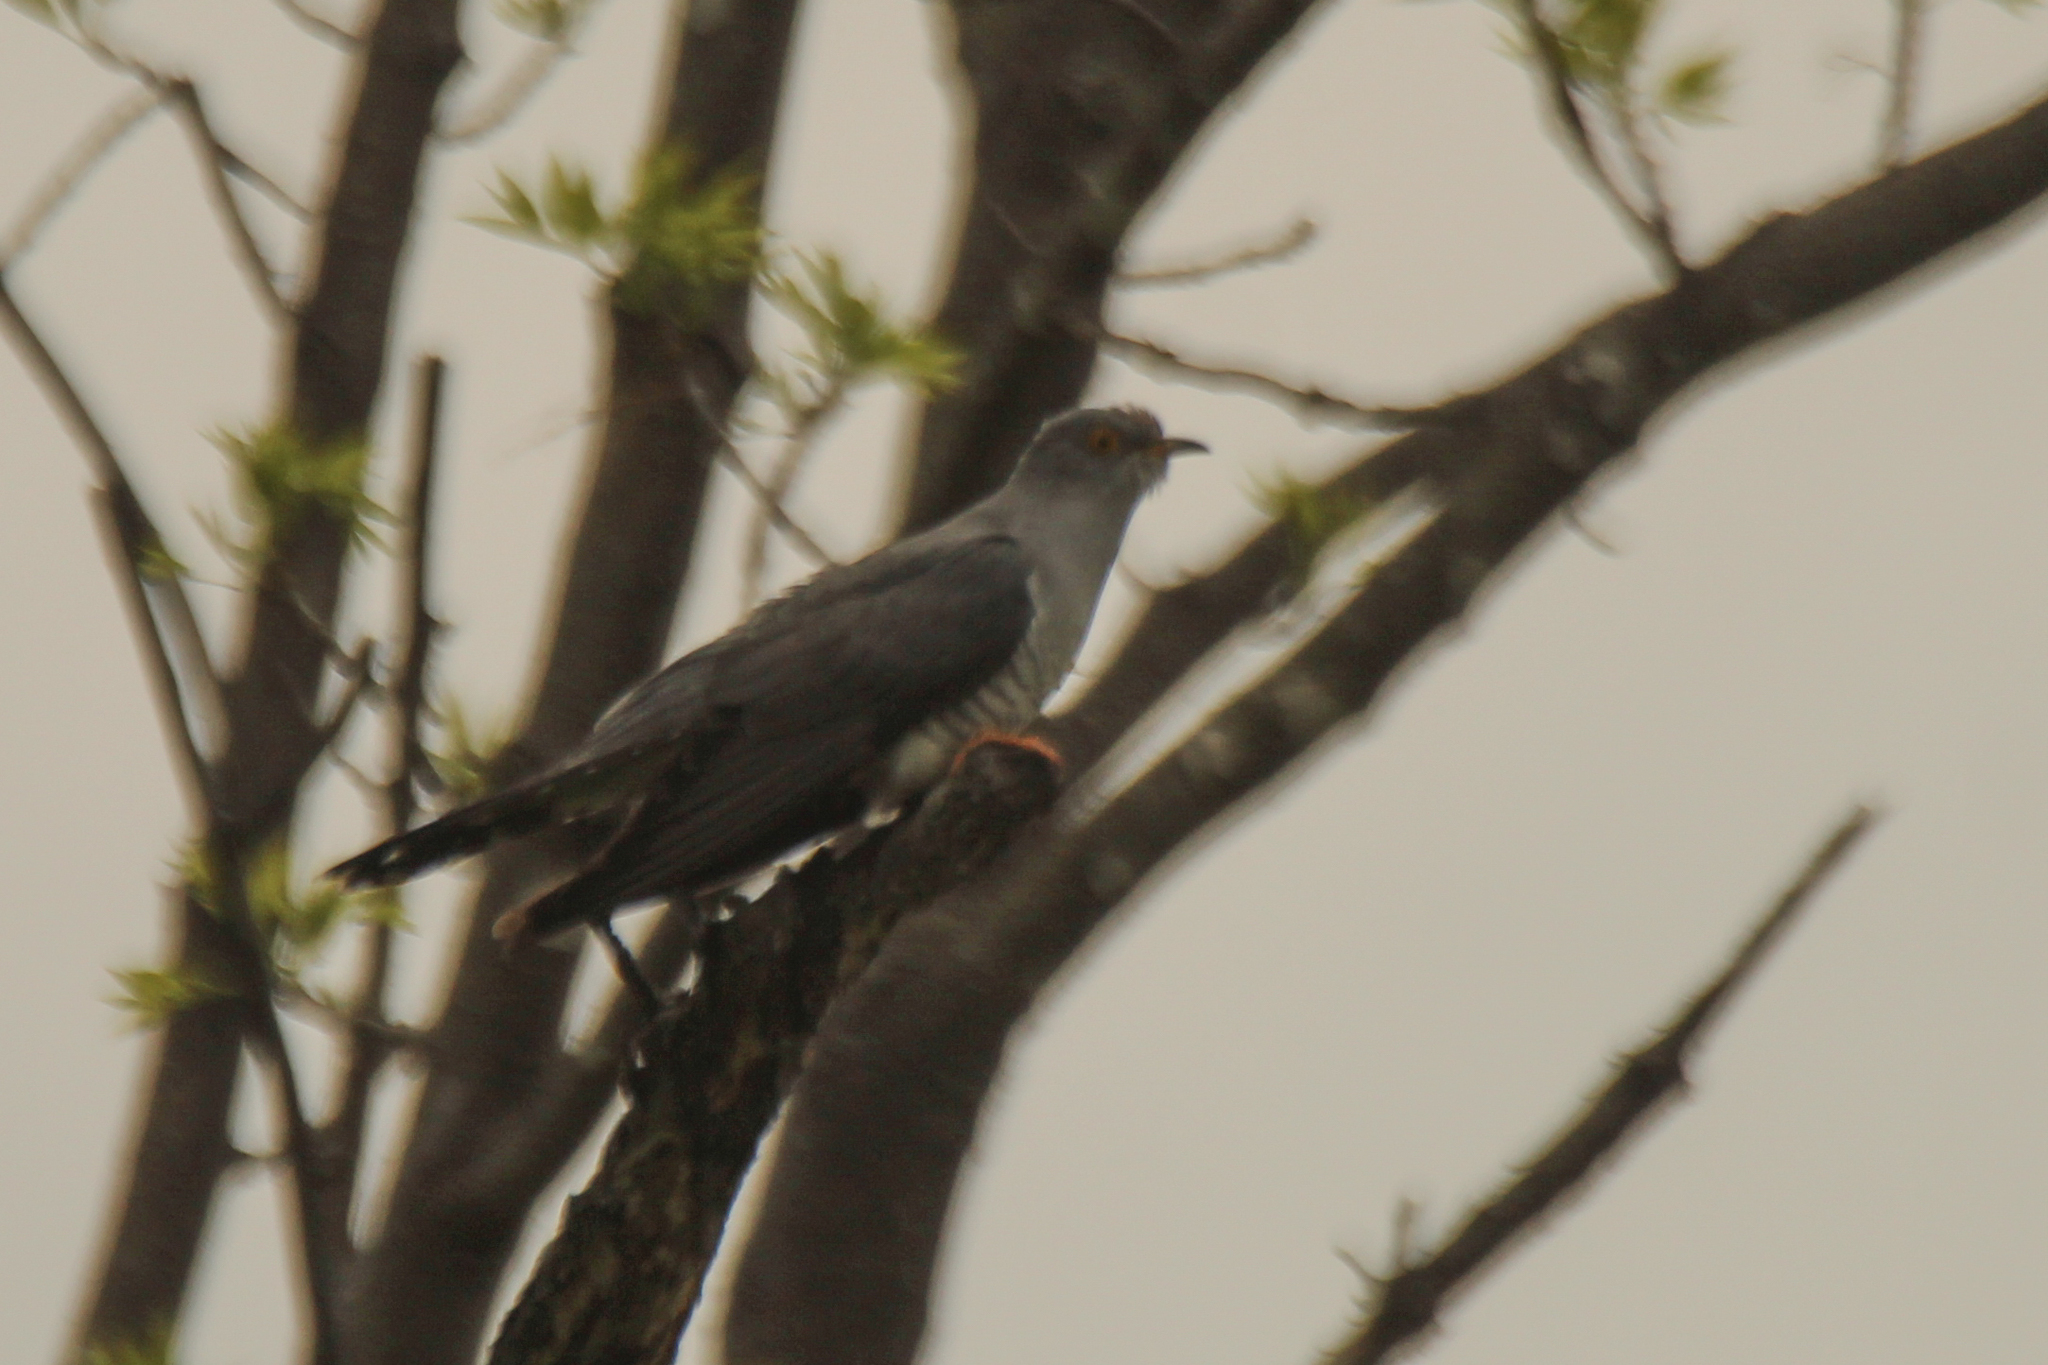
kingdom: Animalia
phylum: Chordata
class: Aves
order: Cuculiformes
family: Cuculidae
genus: Cuculus
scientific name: Cuculus canorus
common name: Common cuckoo
